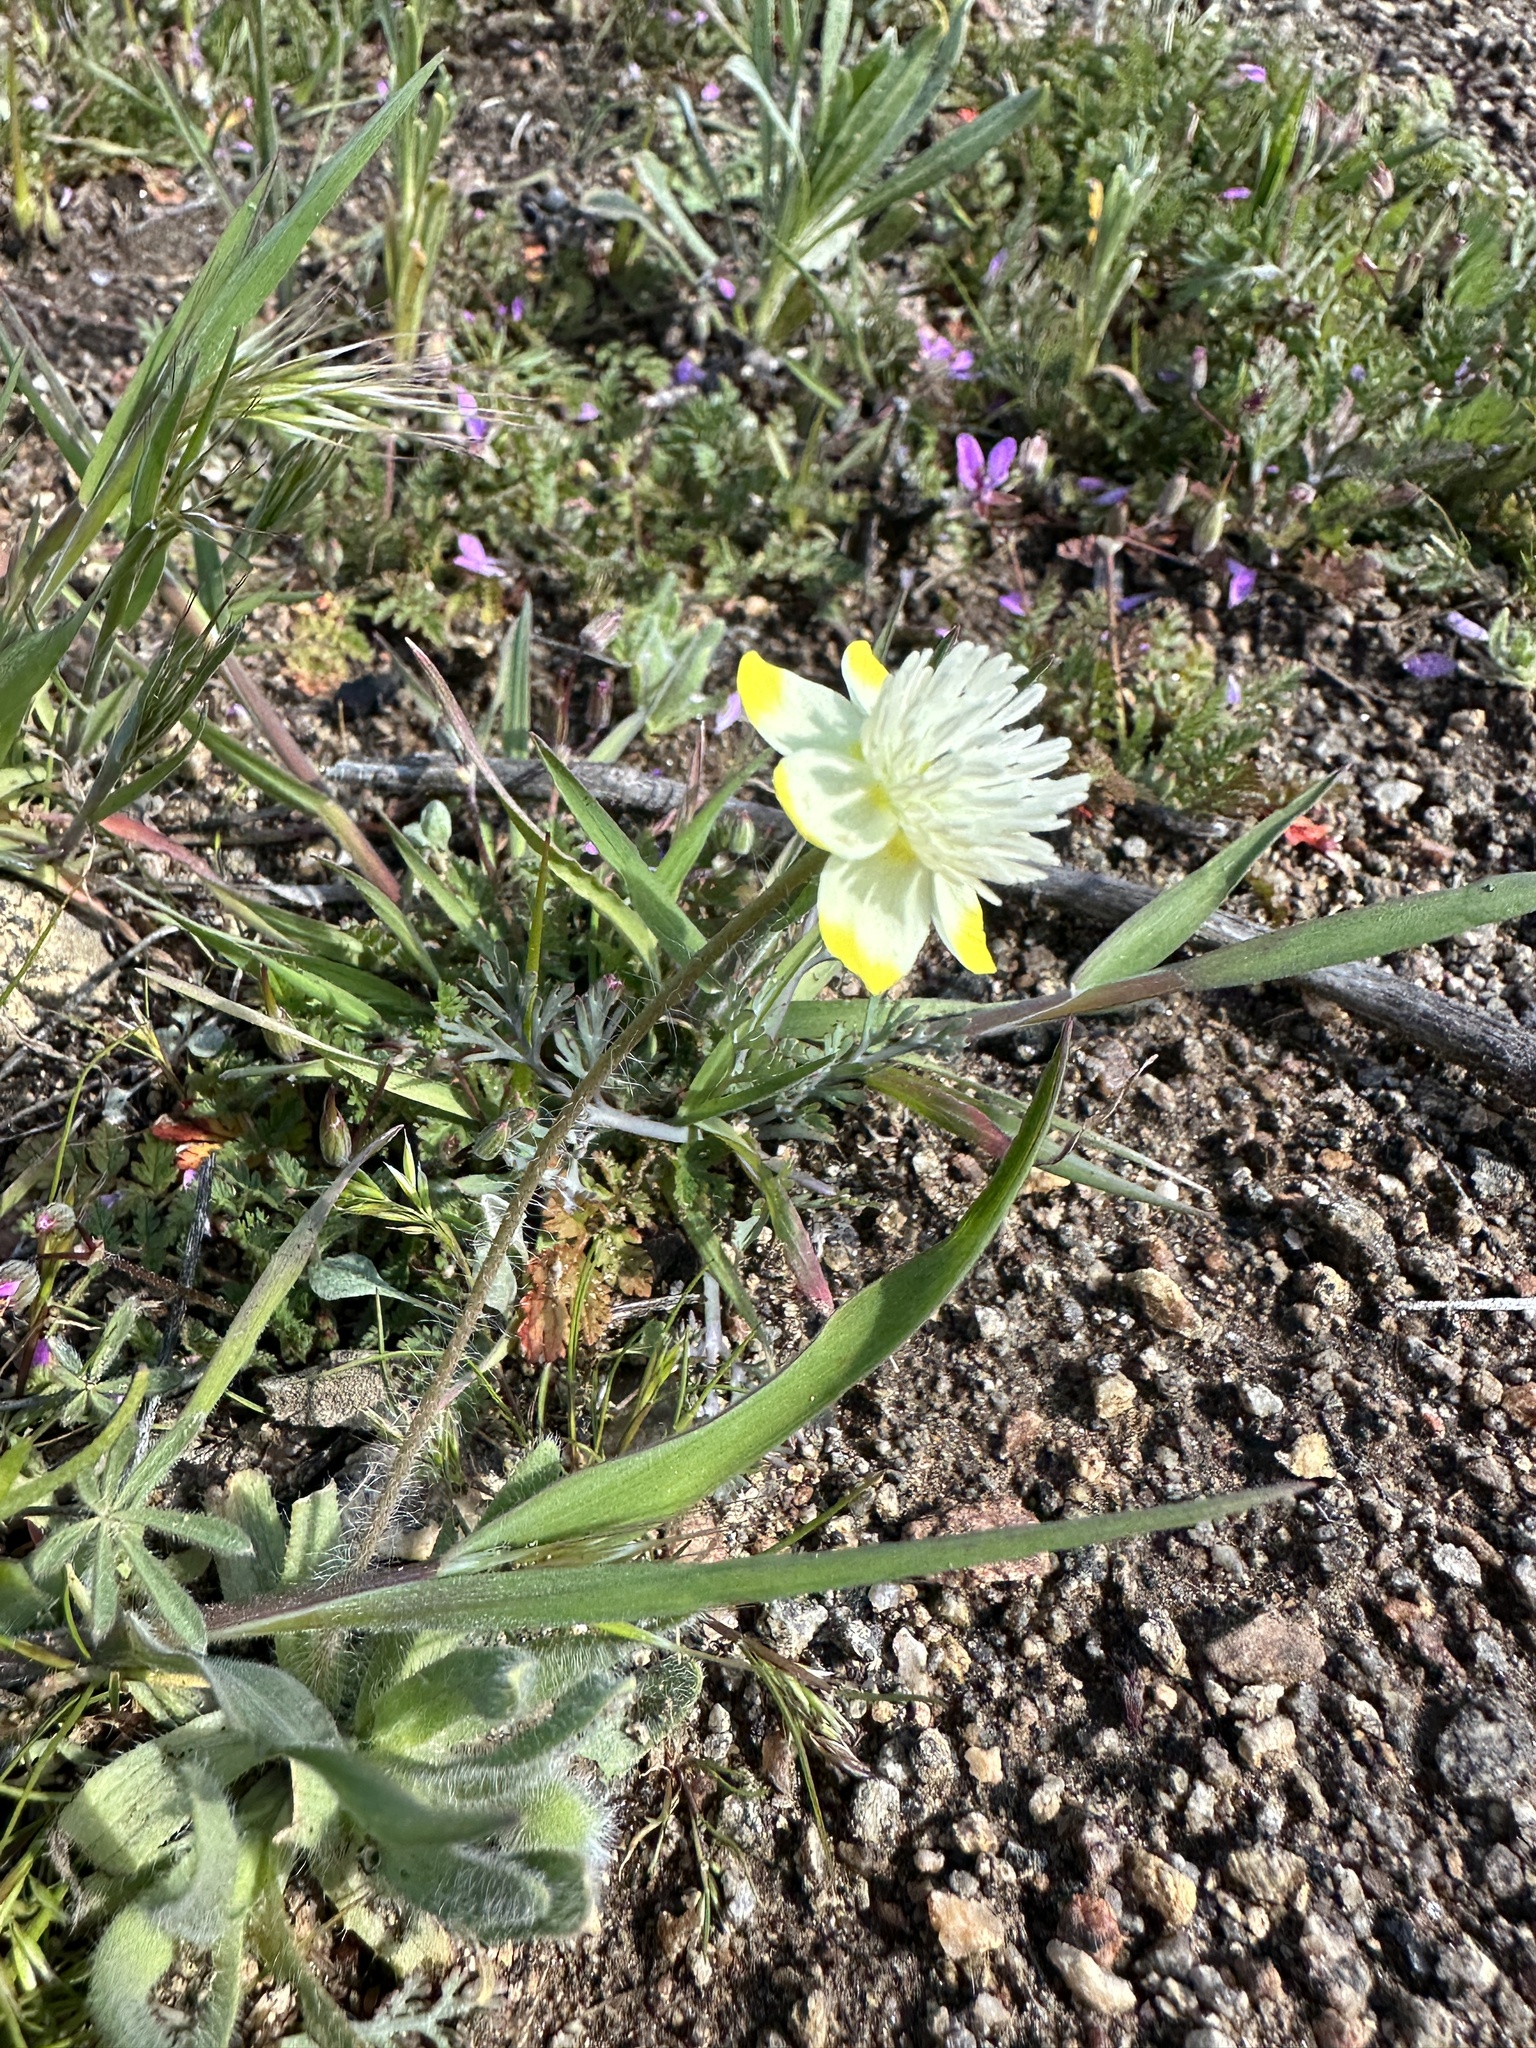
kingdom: Plantae
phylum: Tracheophyta
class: Magnoliopsida
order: Ranunculales
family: Papaveraceae
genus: Platystemon
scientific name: Platystemon californicus
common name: Cream-cups
